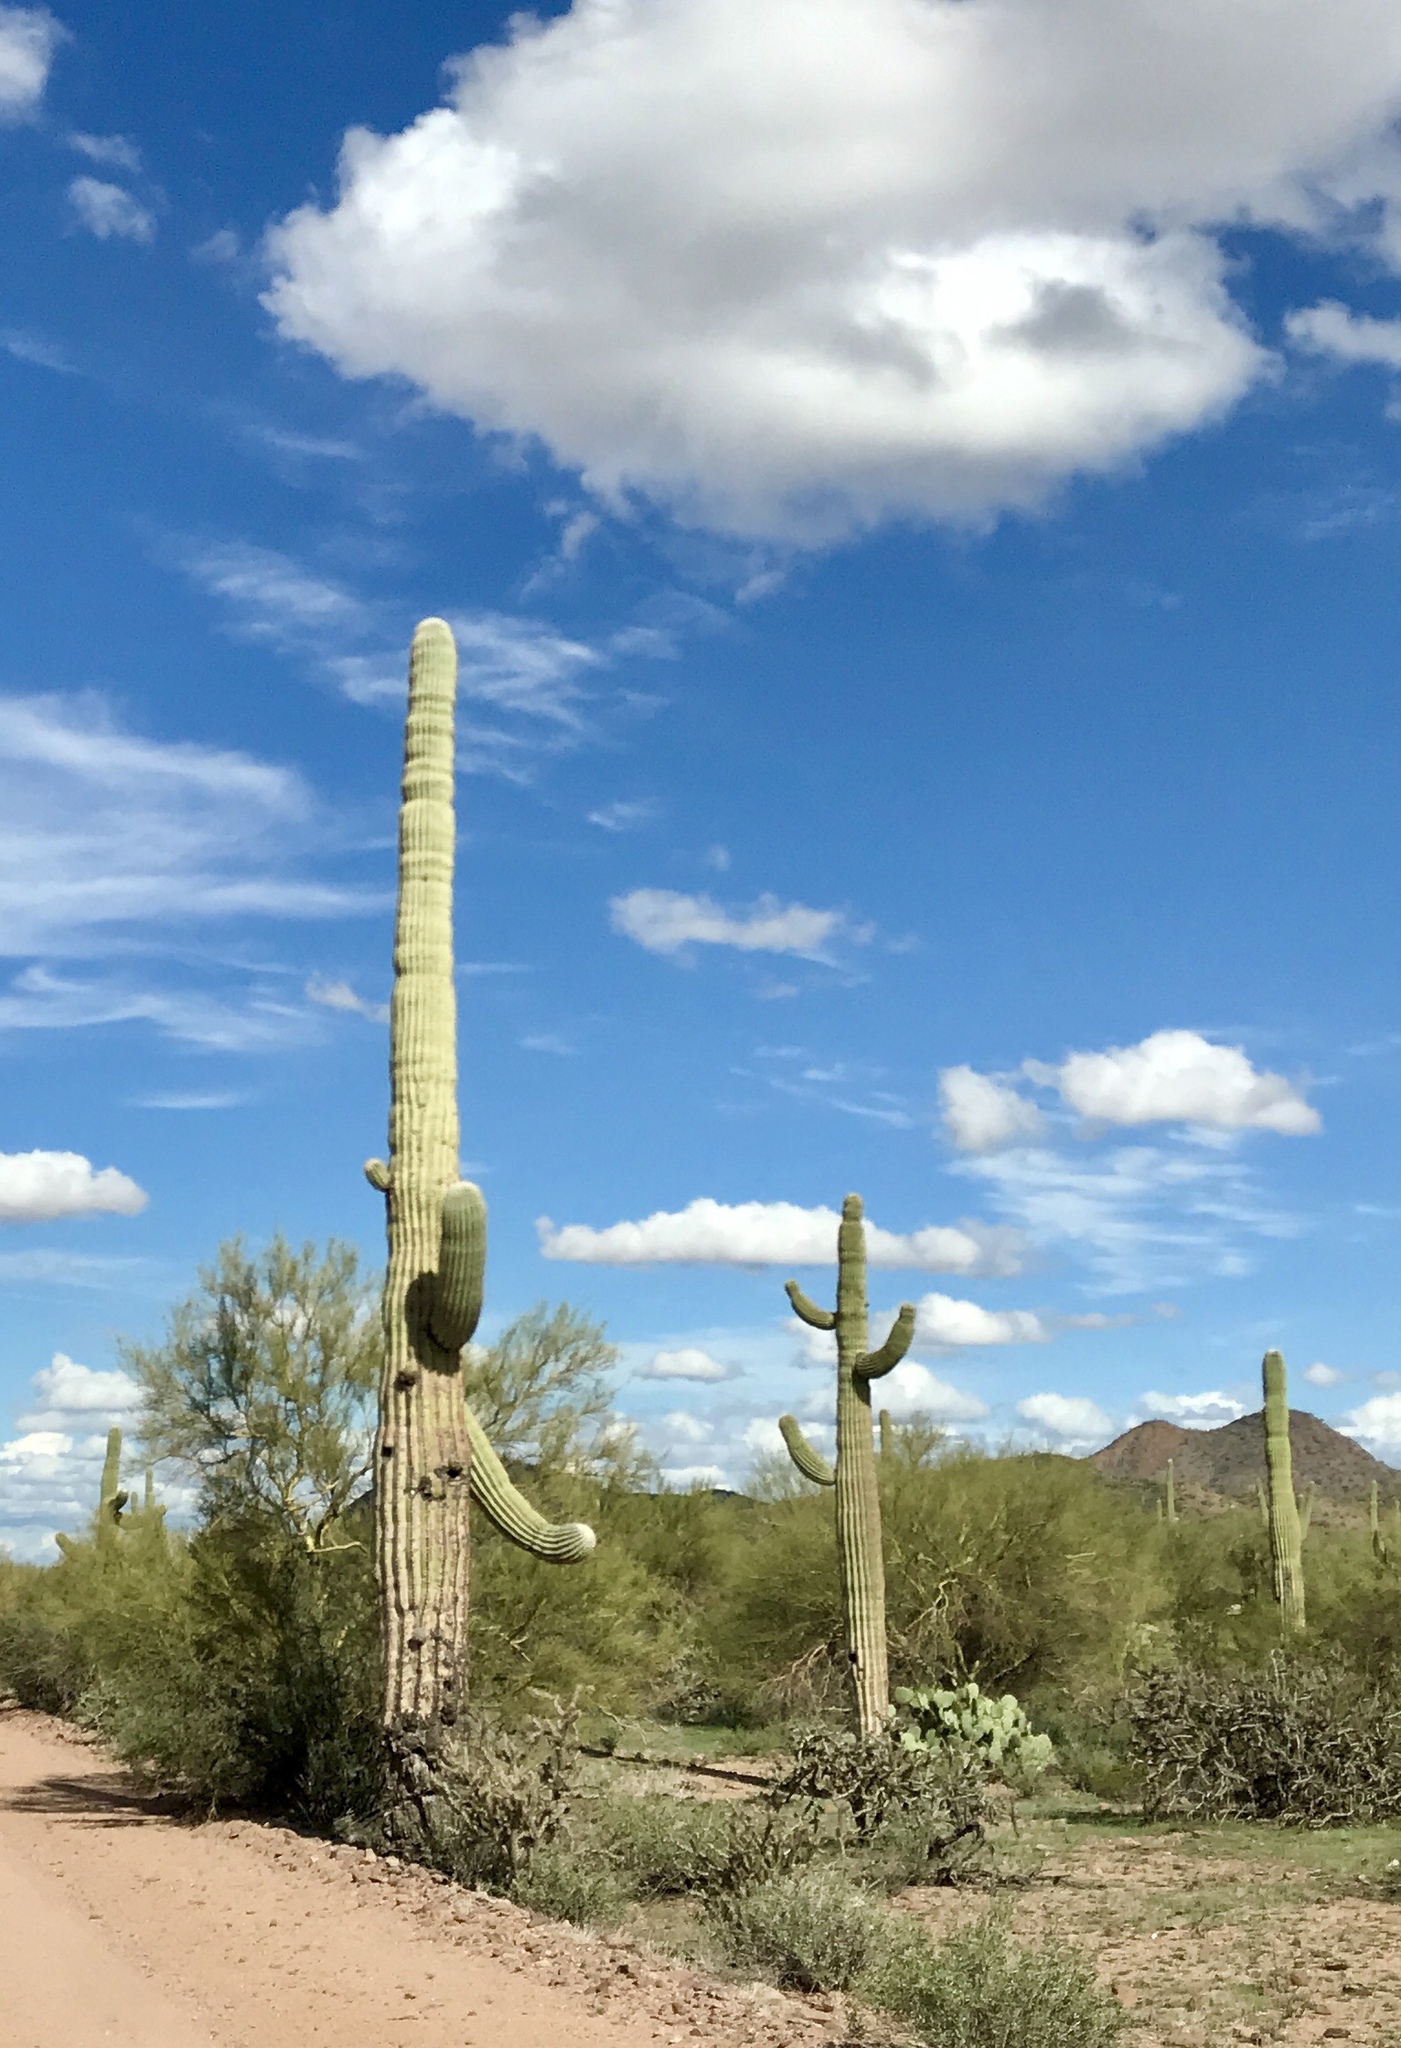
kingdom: Plantae
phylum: Tracheophyta
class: Magnoliopsida
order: Caryophyllales
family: Cactaceae
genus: Carnegiea
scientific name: Carnegiea gigantea
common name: Saguaro
